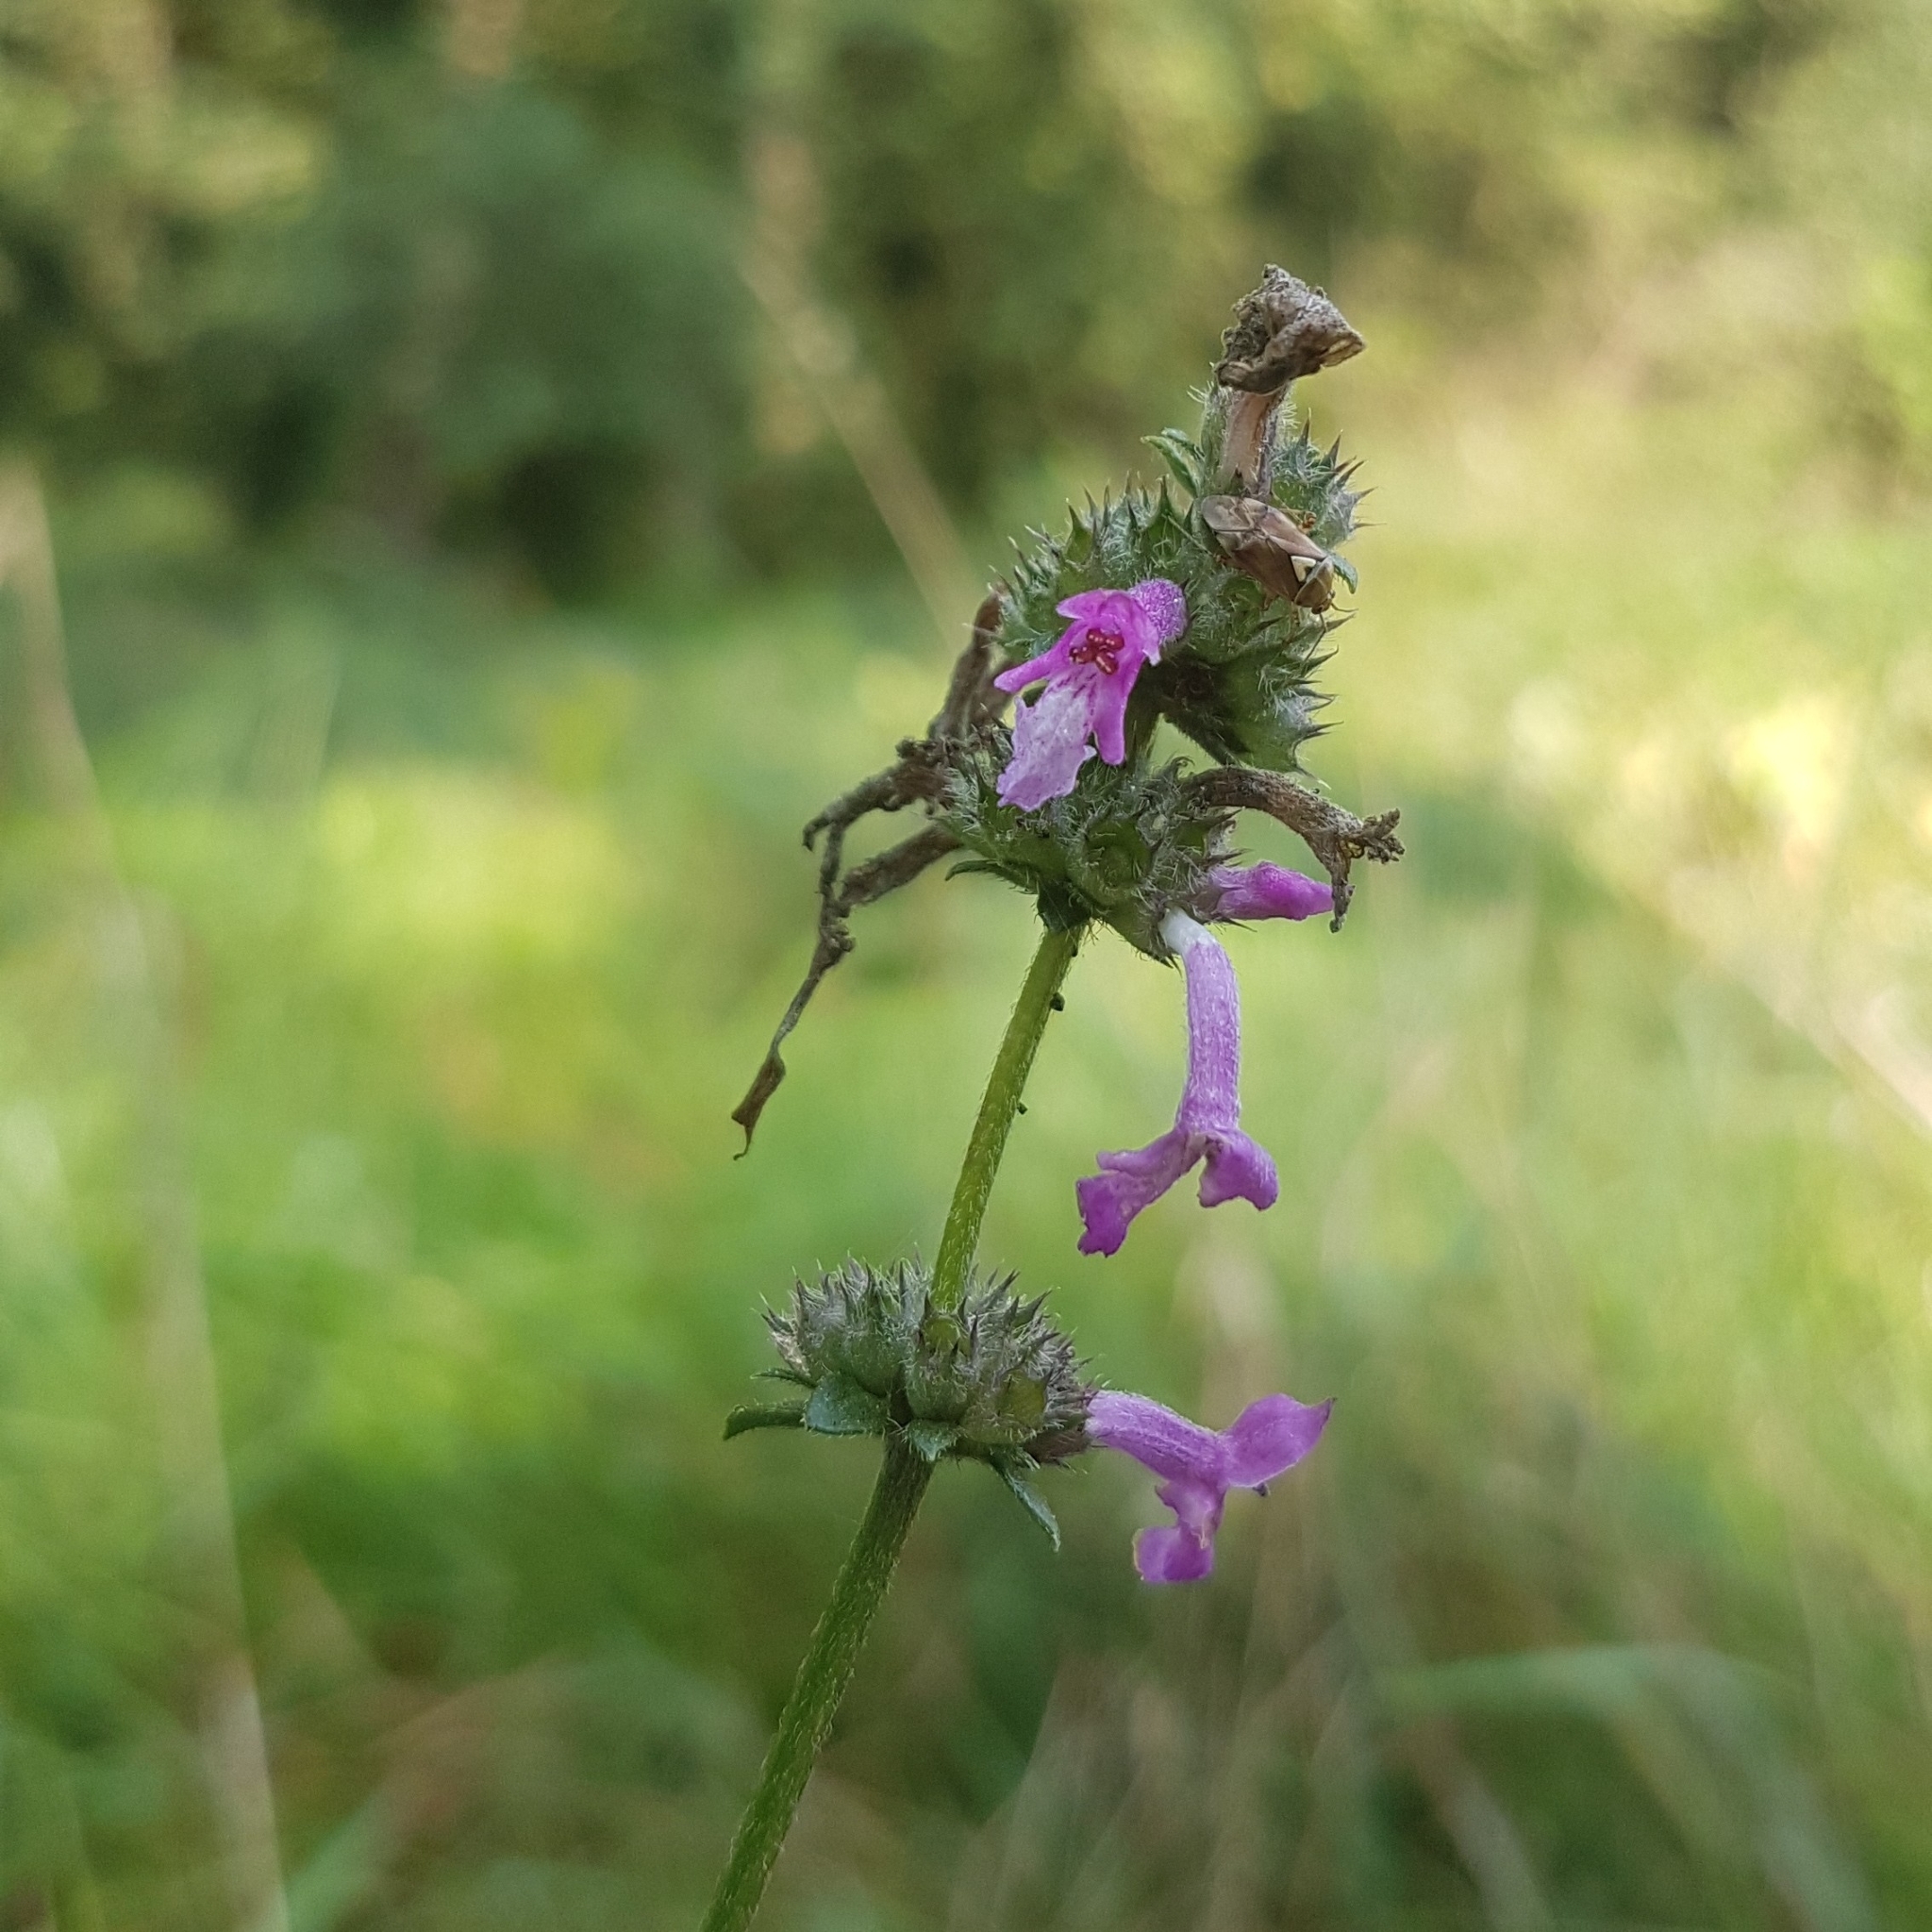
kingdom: Plantae
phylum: Tracheophyta
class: Magnoliopsida
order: Lamiales
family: Lamiaceae
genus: Betonica
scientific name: Betonica officinalis
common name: Bishop's-wort
